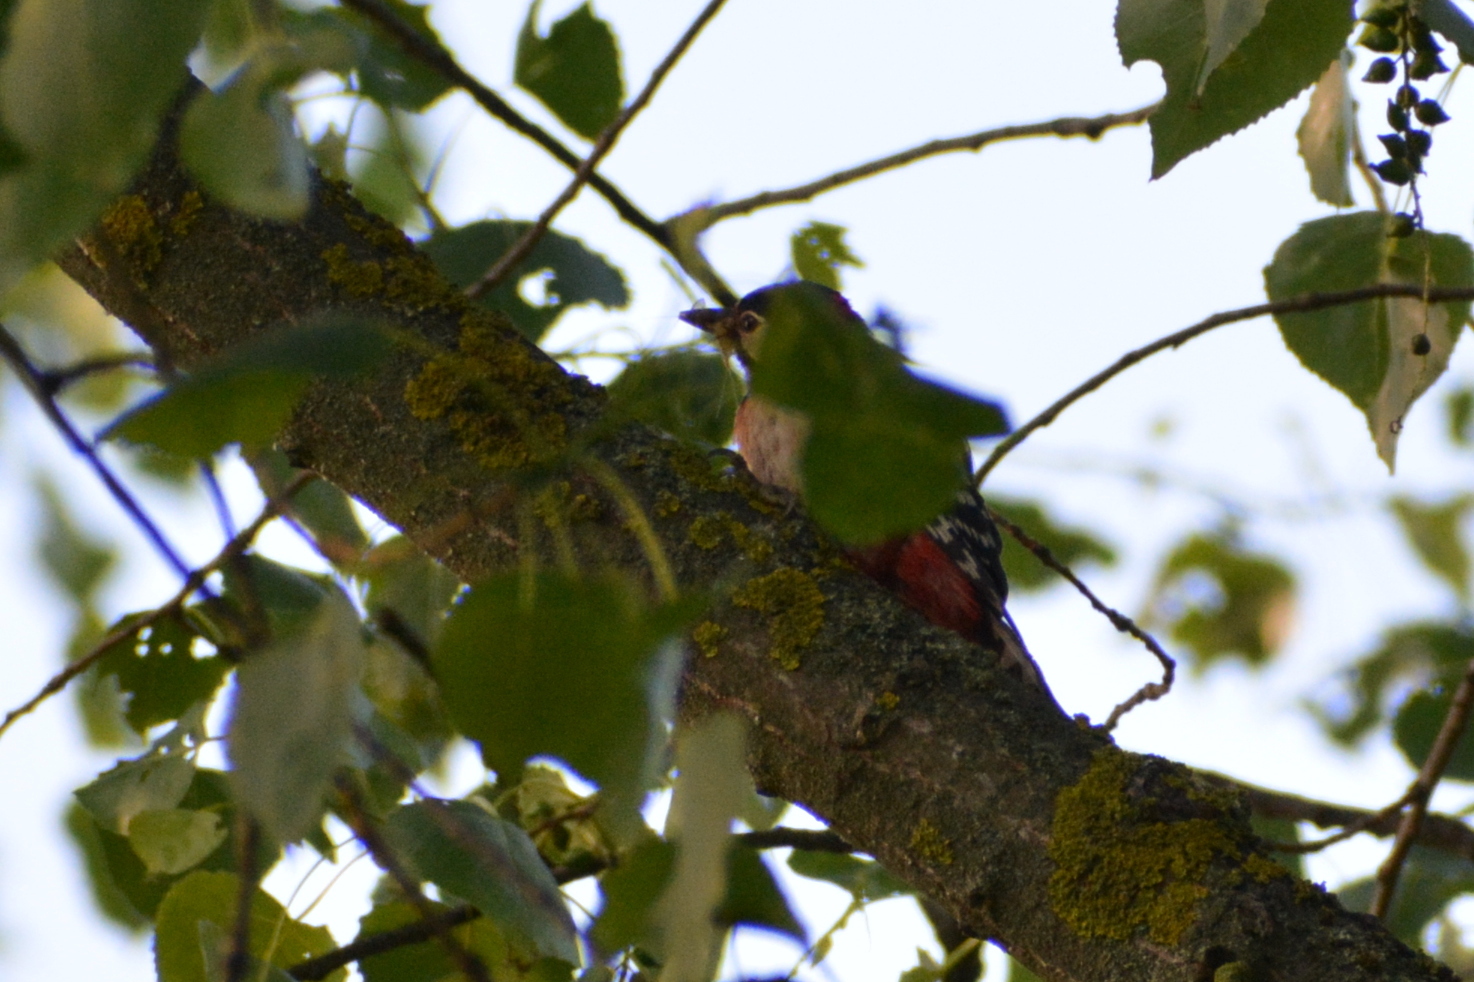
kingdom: Animalia
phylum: Chordata
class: Aves
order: Piciformes
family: Picidae
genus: Dendrocopos
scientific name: Dendrocopos major
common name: Great spotted woodpecker
